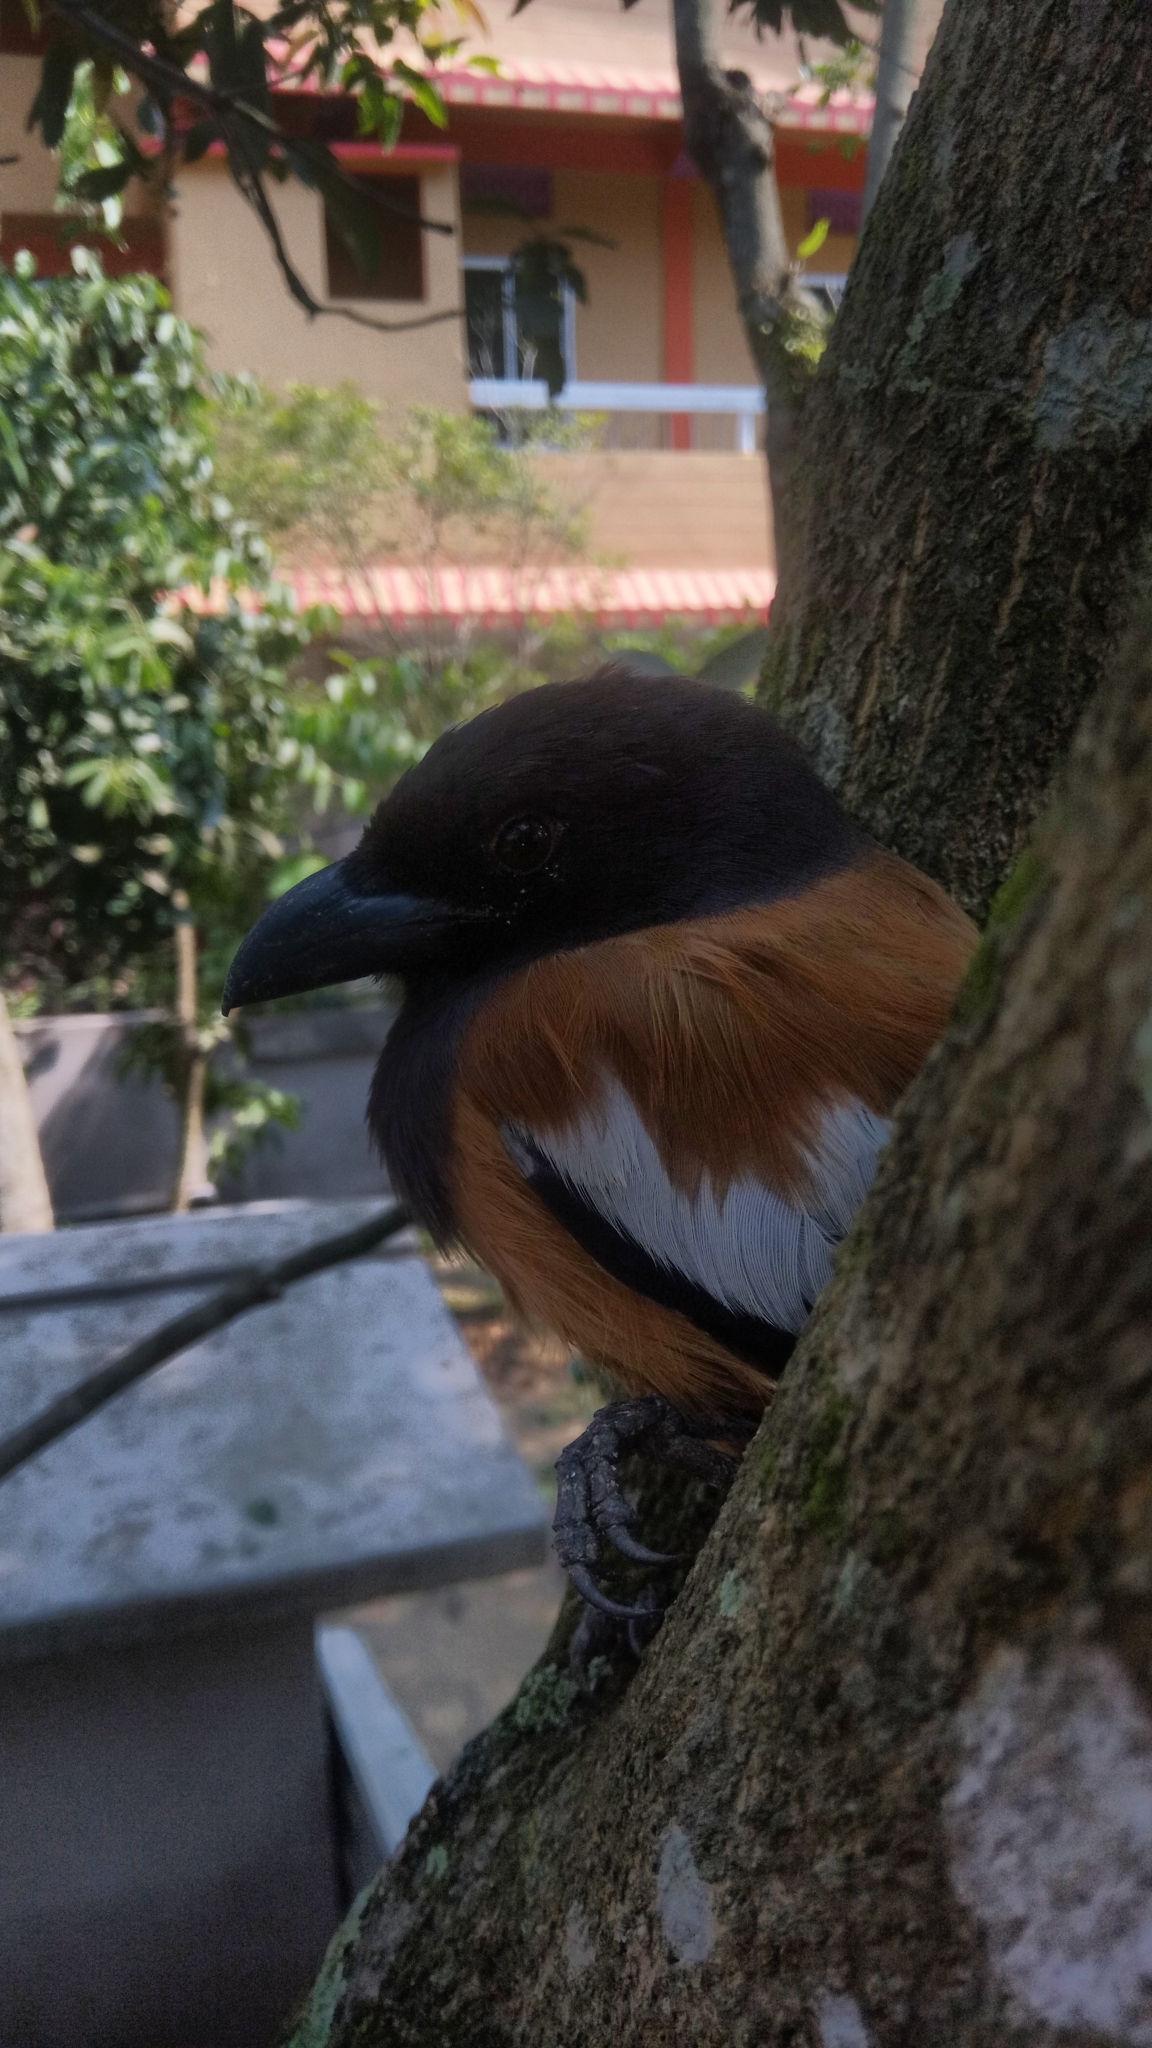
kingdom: Animalia
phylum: Chordata
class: Aves
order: Passeriformes
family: Corvidae
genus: Dendrocitta
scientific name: Dendrocitta vagabunda
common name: Rufous treepie
